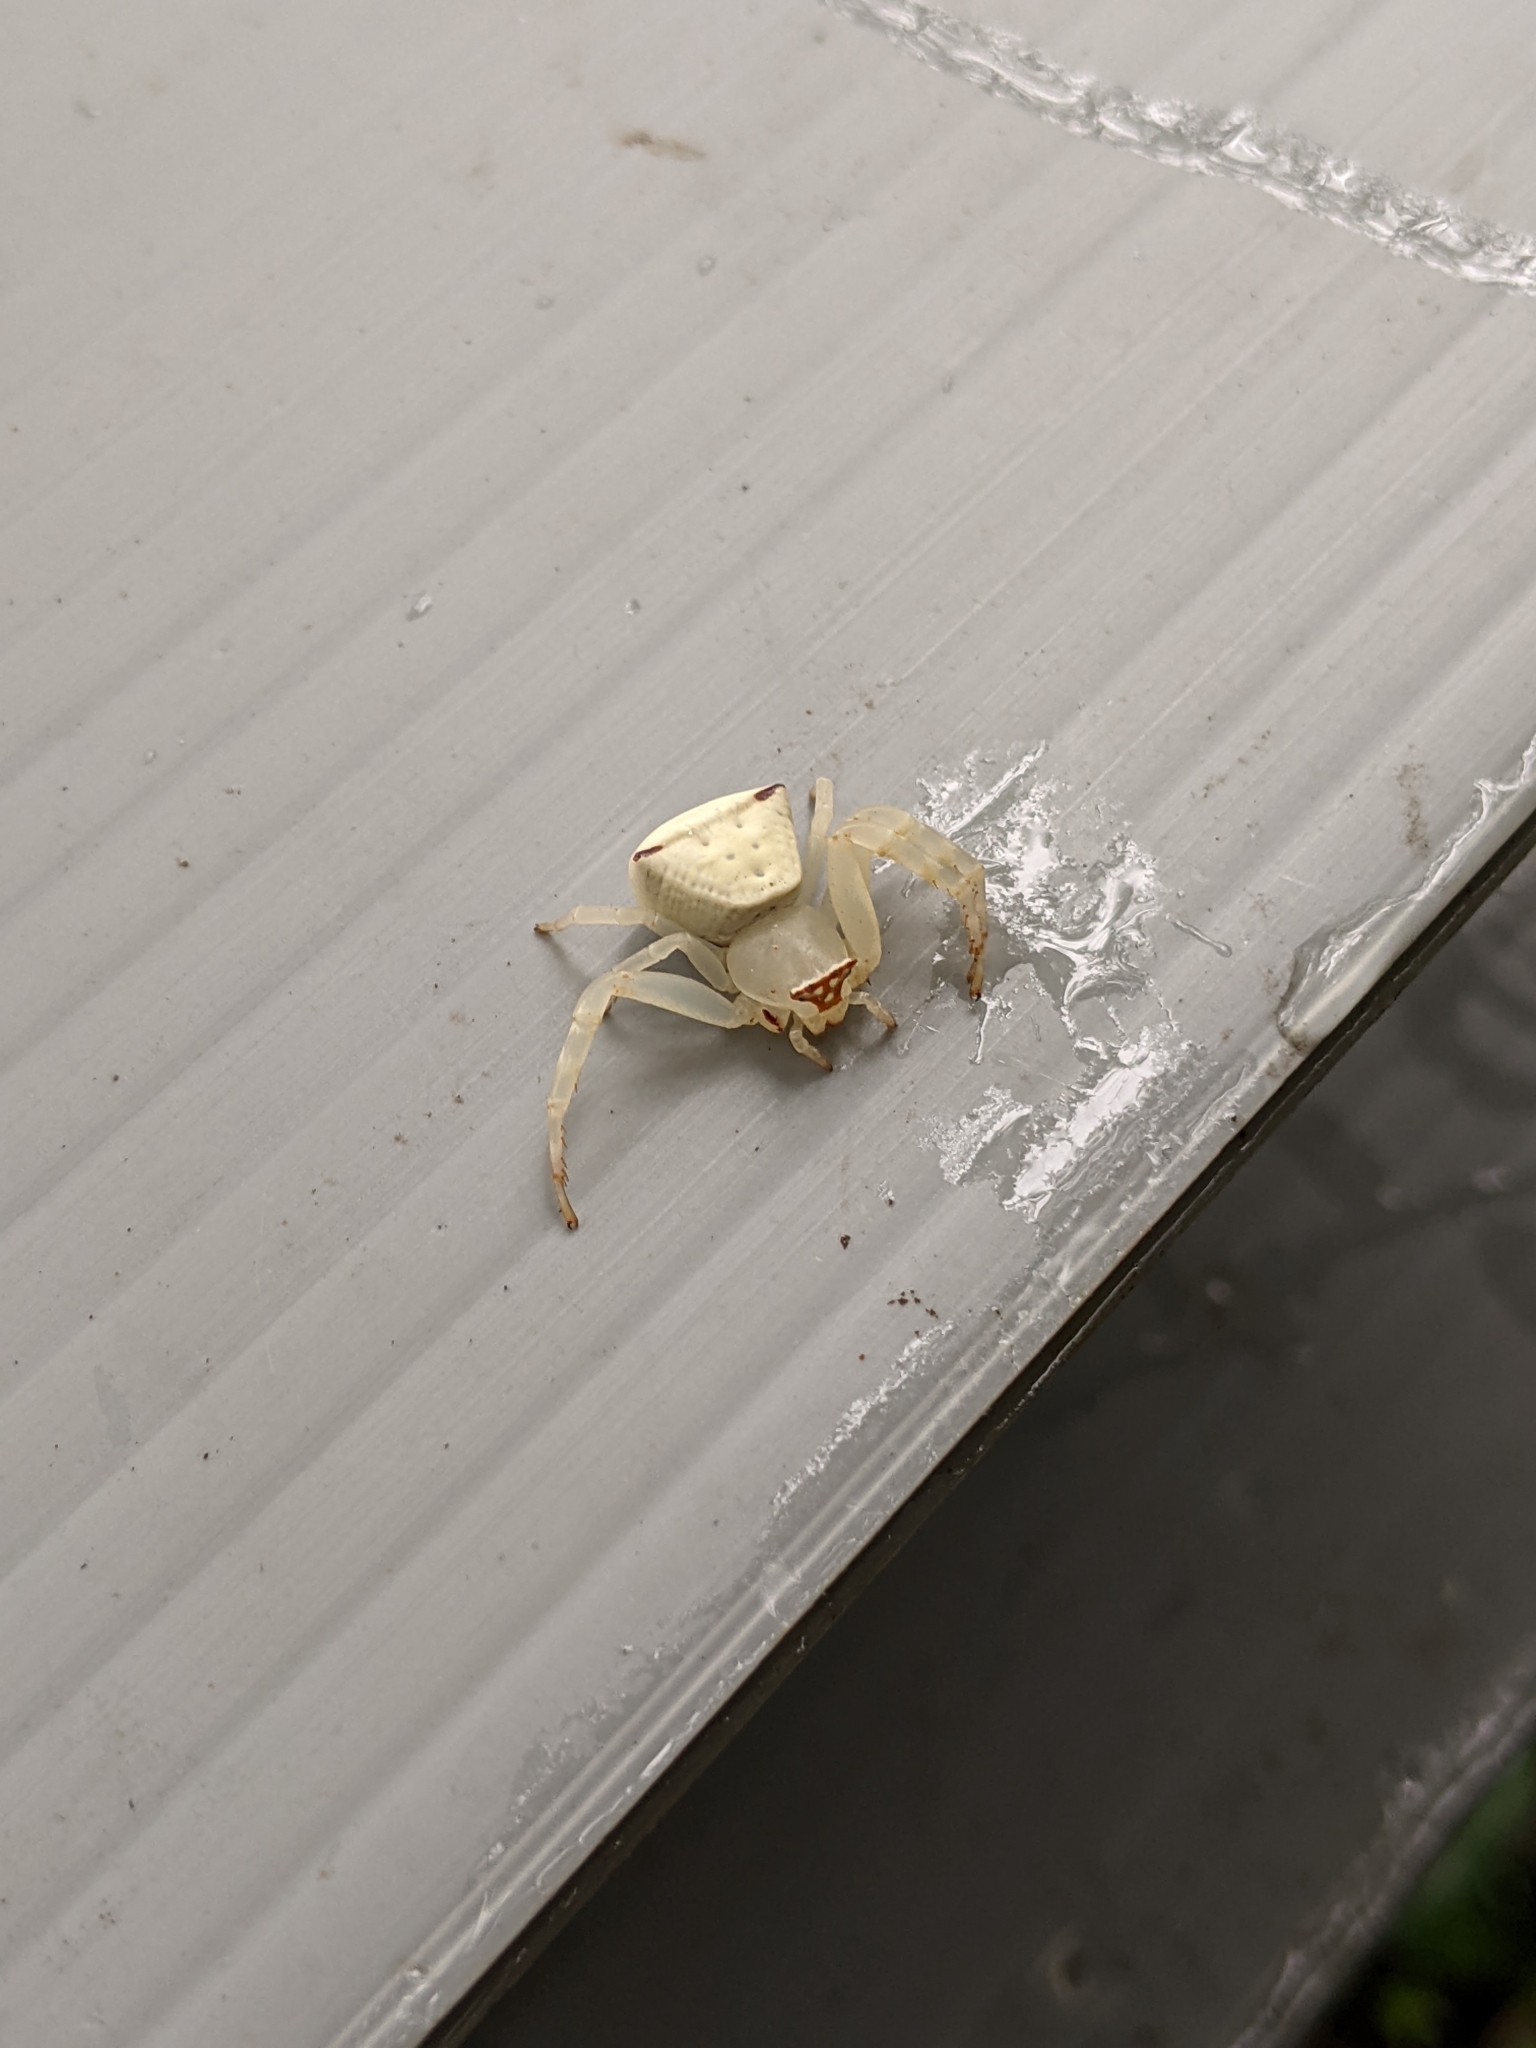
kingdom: Animalia
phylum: Arthropoda
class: Arachnida
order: Araneae
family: Thomisidae
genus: Thomisus
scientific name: Thomisus labefactus
